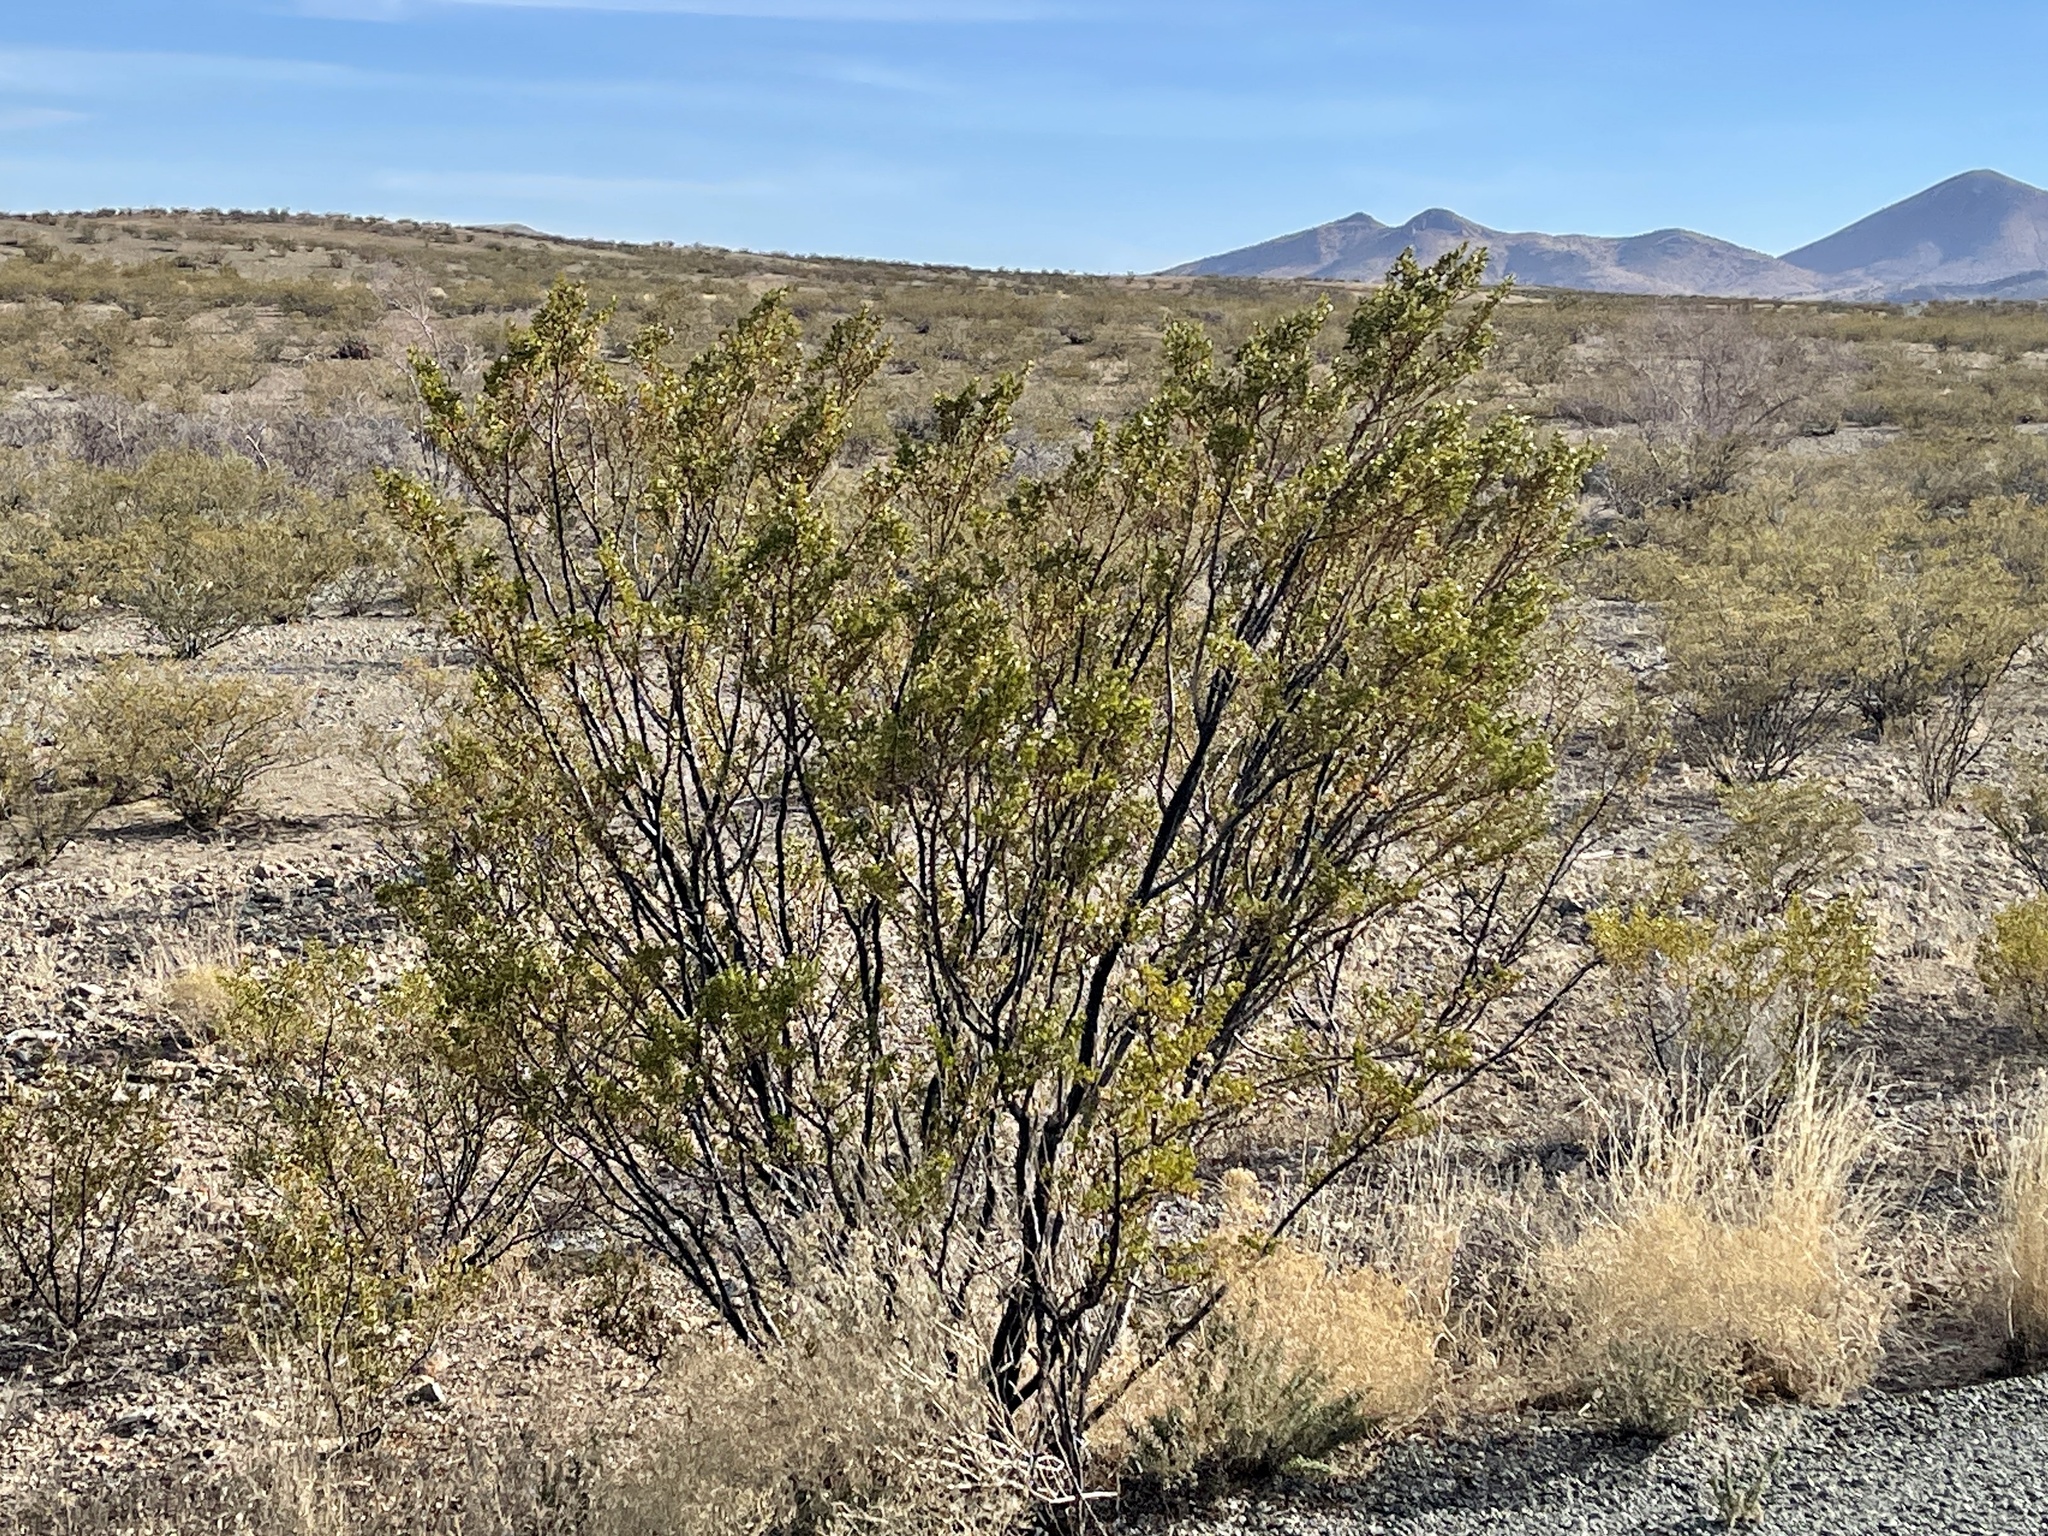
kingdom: Plantae
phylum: Tracheophyta
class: Magnoliopsida
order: Zygophyllales
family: Zygophyllaceae
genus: Larrea
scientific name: Larrea tridentata
